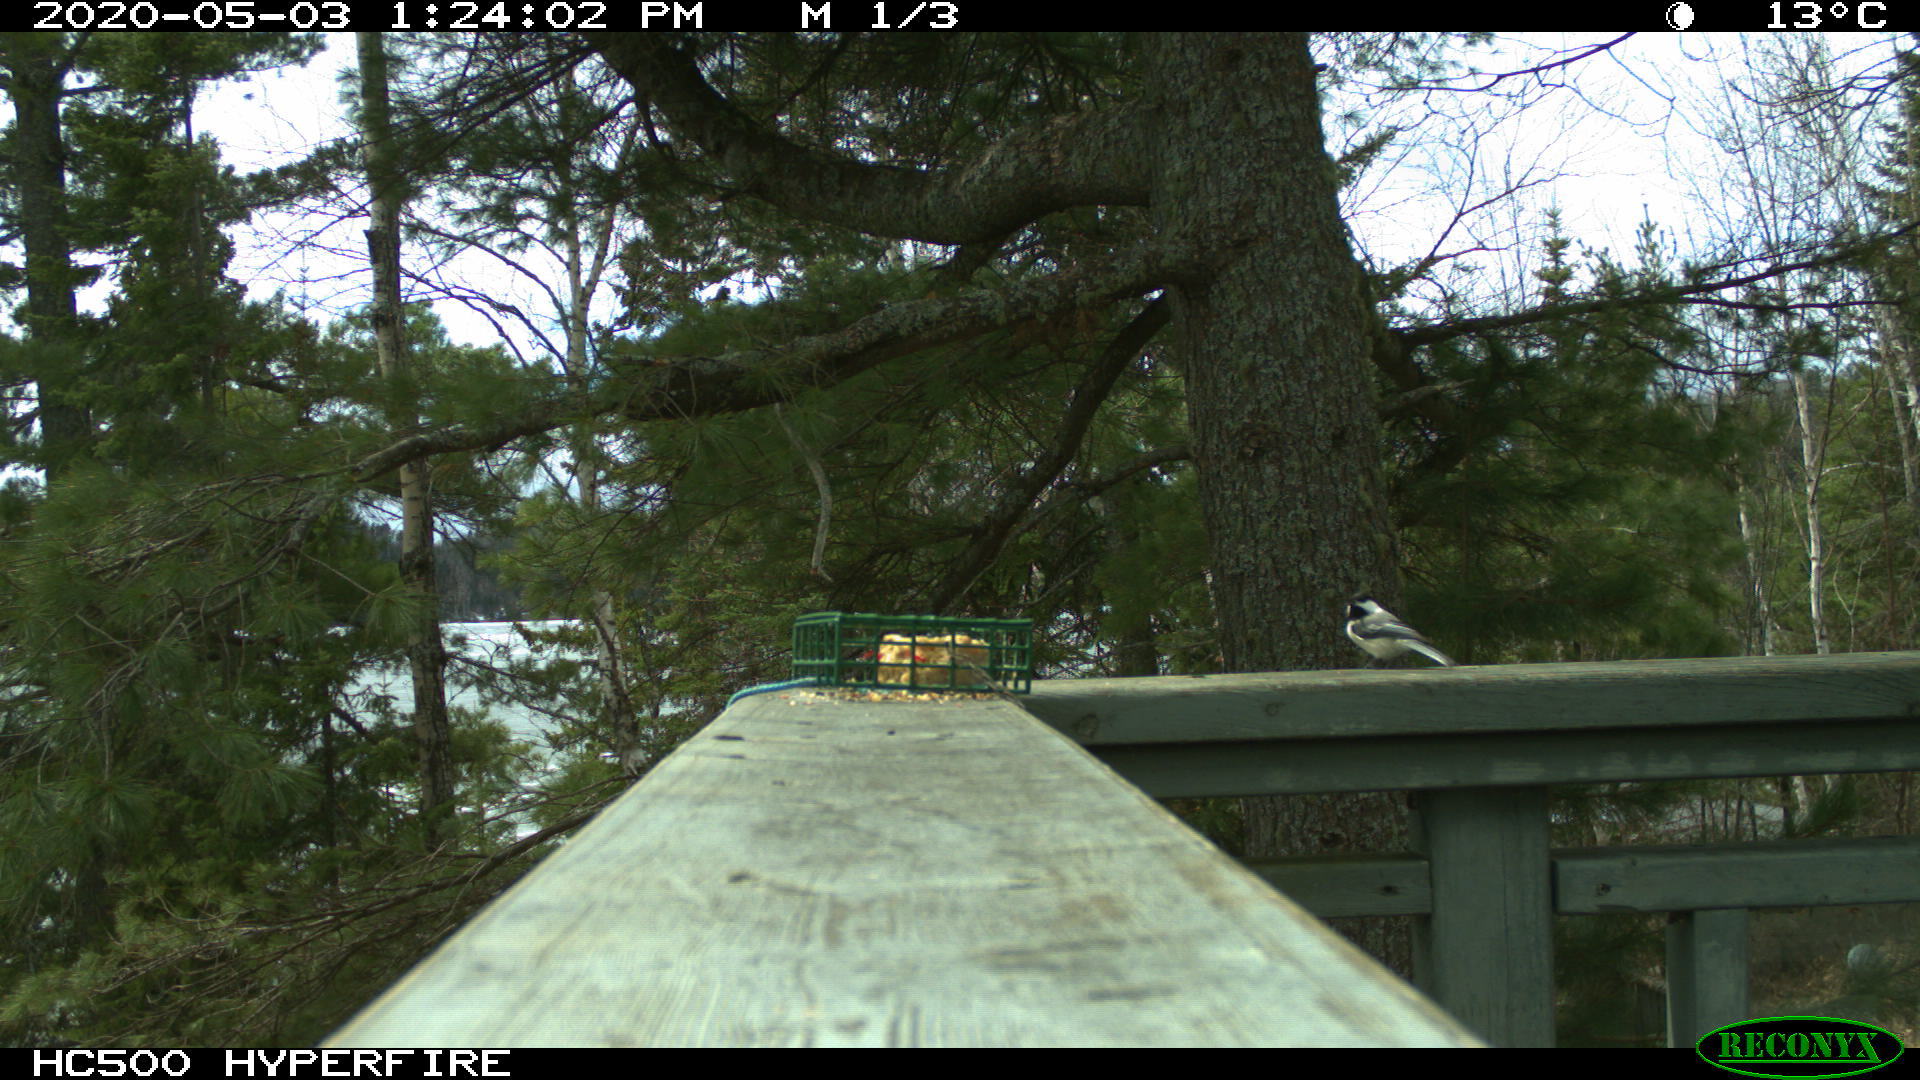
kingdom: Animalia
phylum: Chordata
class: Aves
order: Passeriformes
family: Paridae
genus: Poecile
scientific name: Poecile atricapillus
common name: Black-capped chickadee
